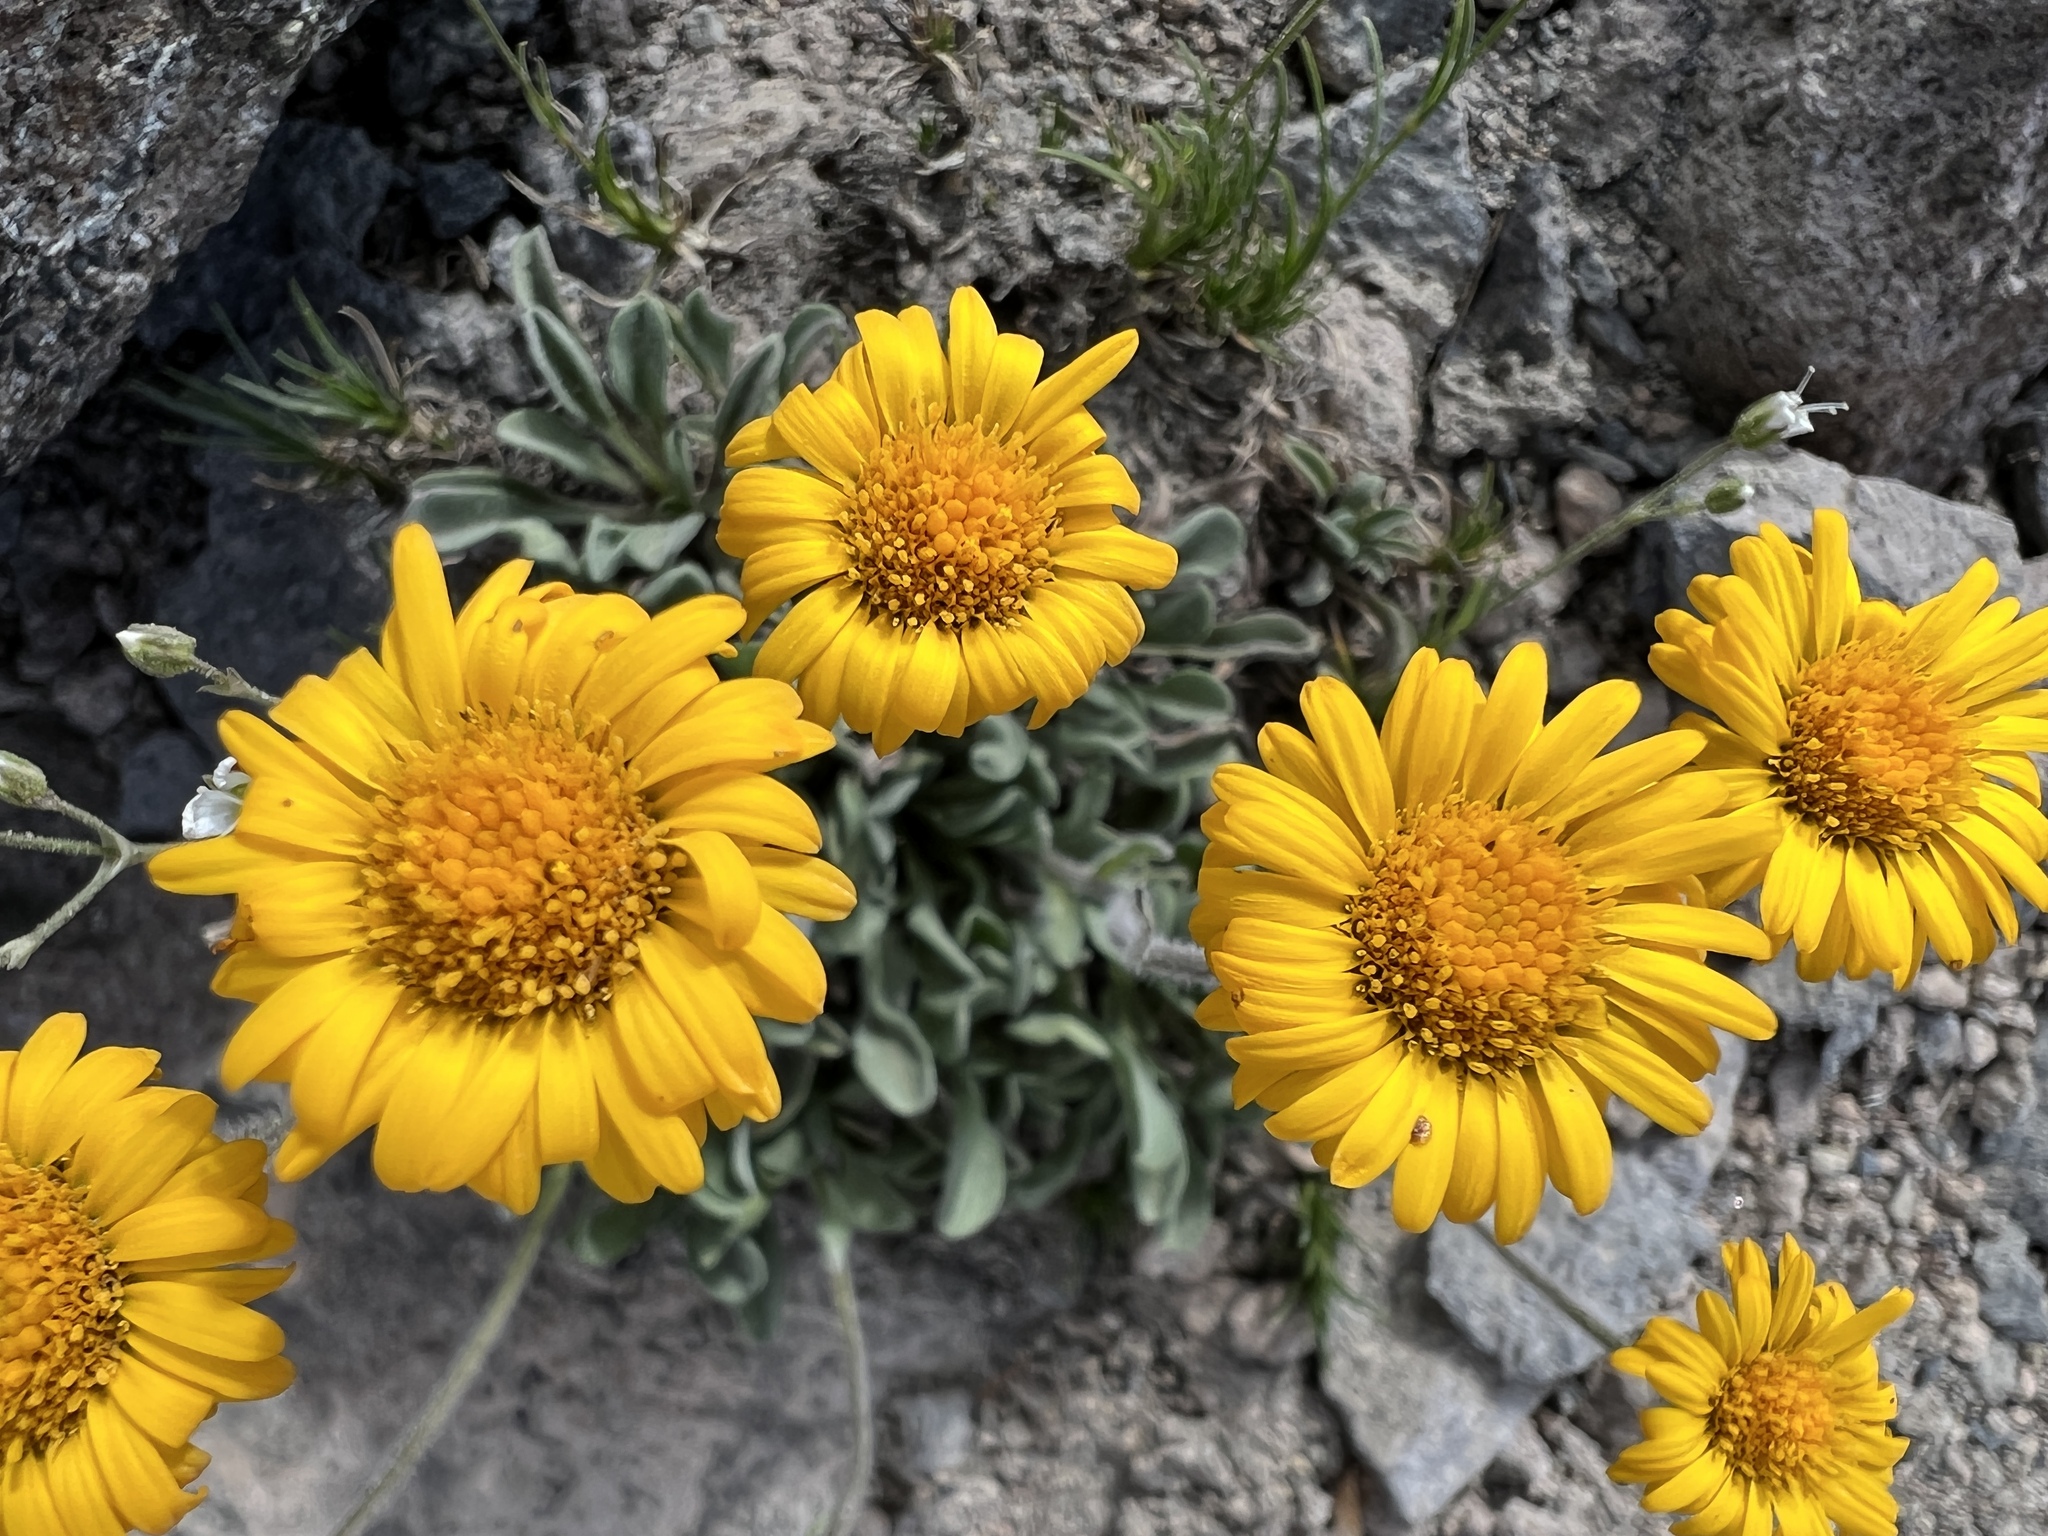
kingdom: Plantae
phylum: Tracheophyta
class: Magnoliopsida
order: Asterales
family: Asteraceae
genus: Erigeron
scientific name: Erigeron aureus
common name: Alpine yellow fleabane
